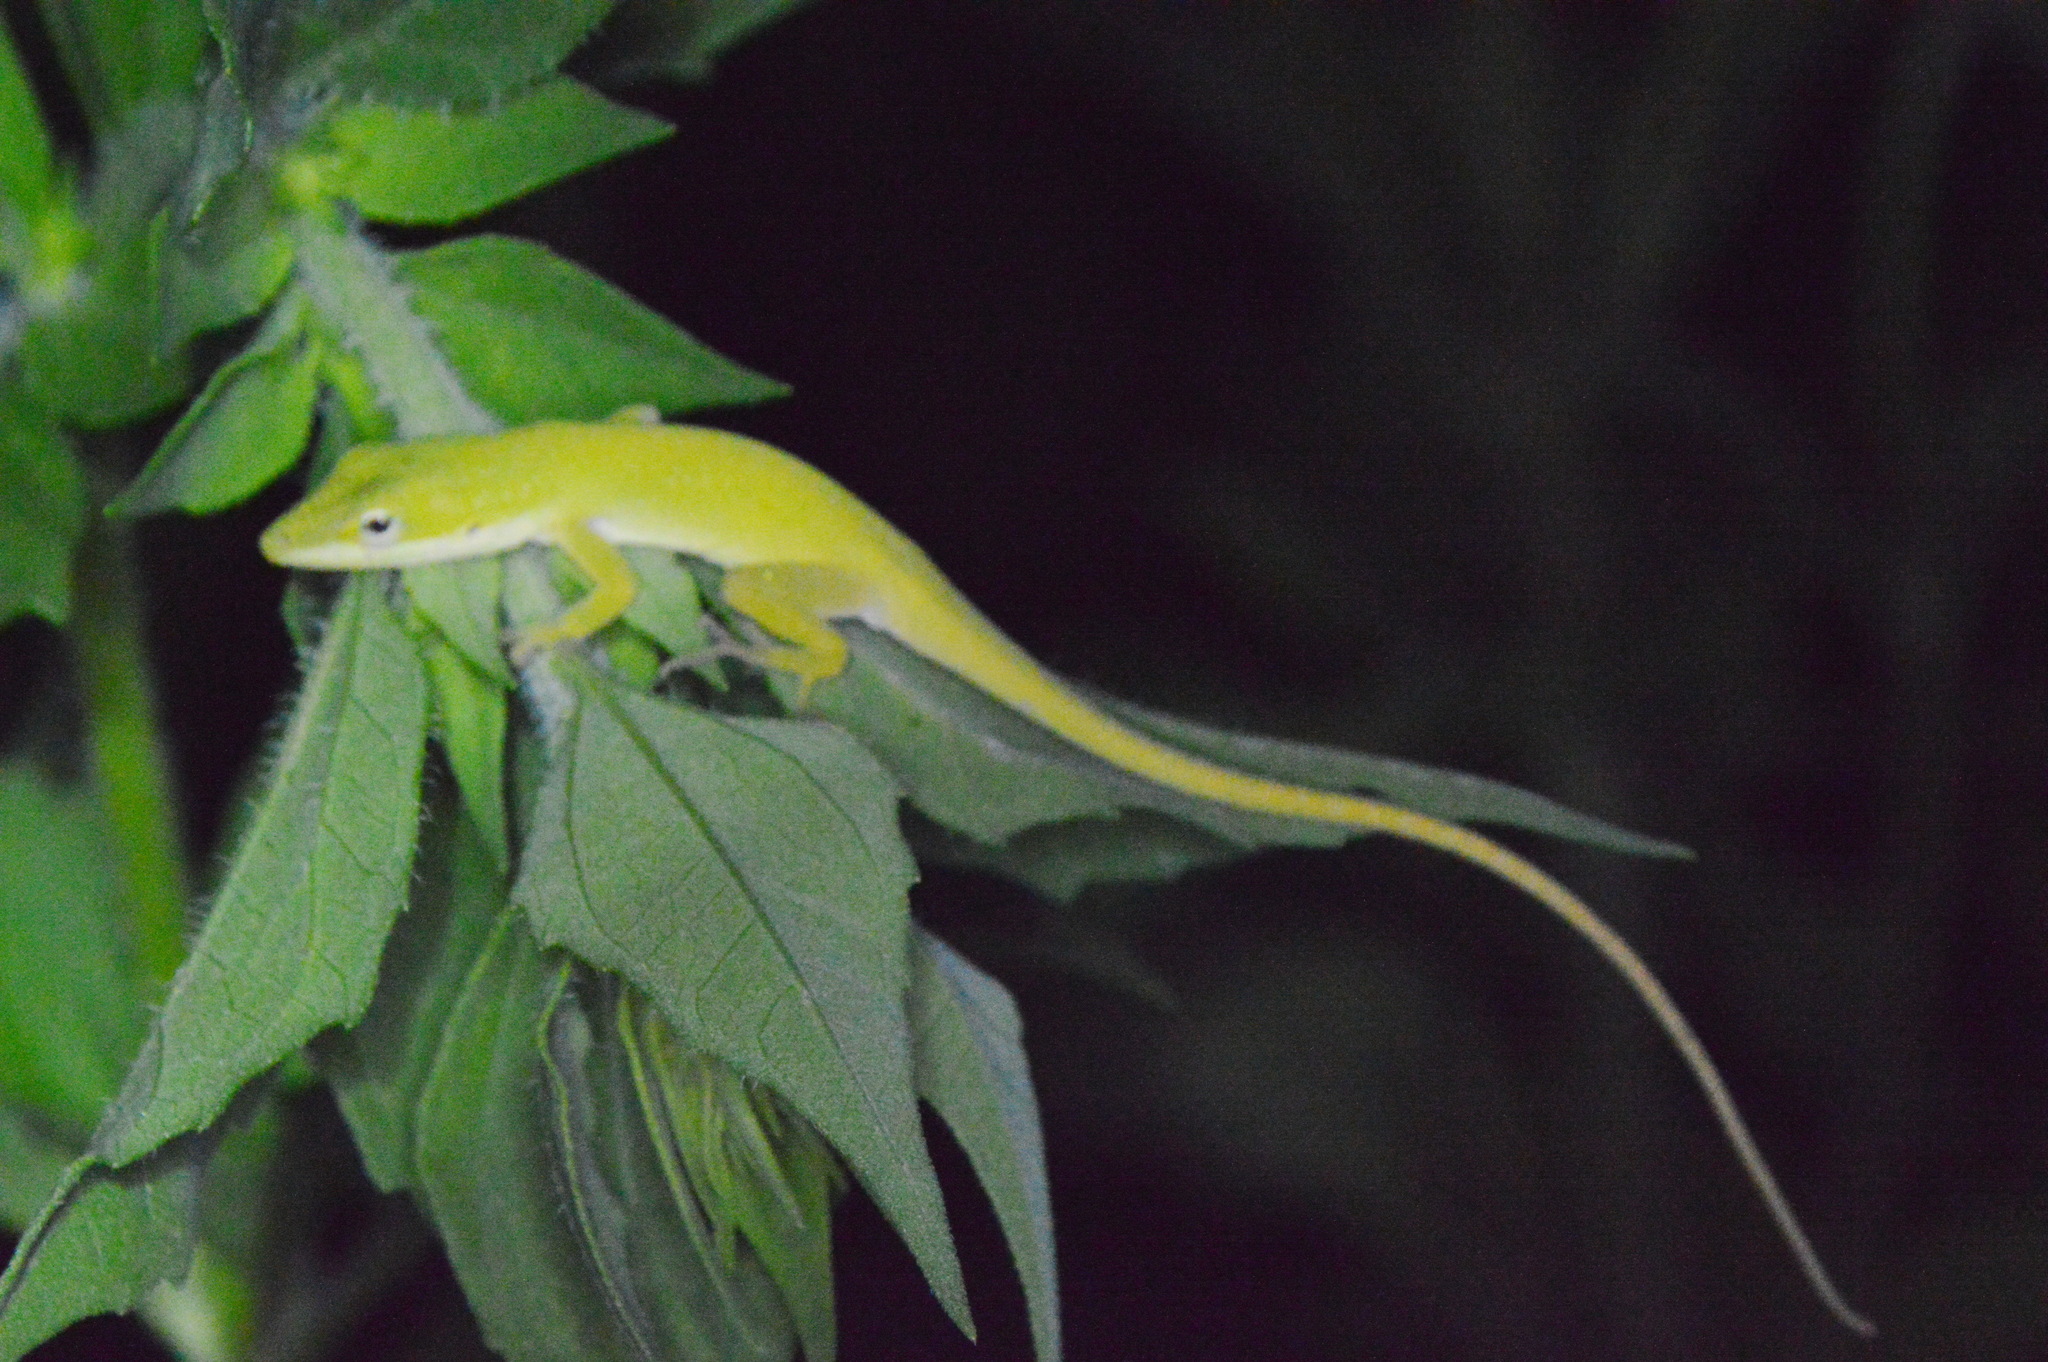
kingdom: Animalia
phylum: Chordata
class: Squamata
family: Dactyloidae
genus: Anolis
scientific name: Anolis carolinensis
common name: Green anole
